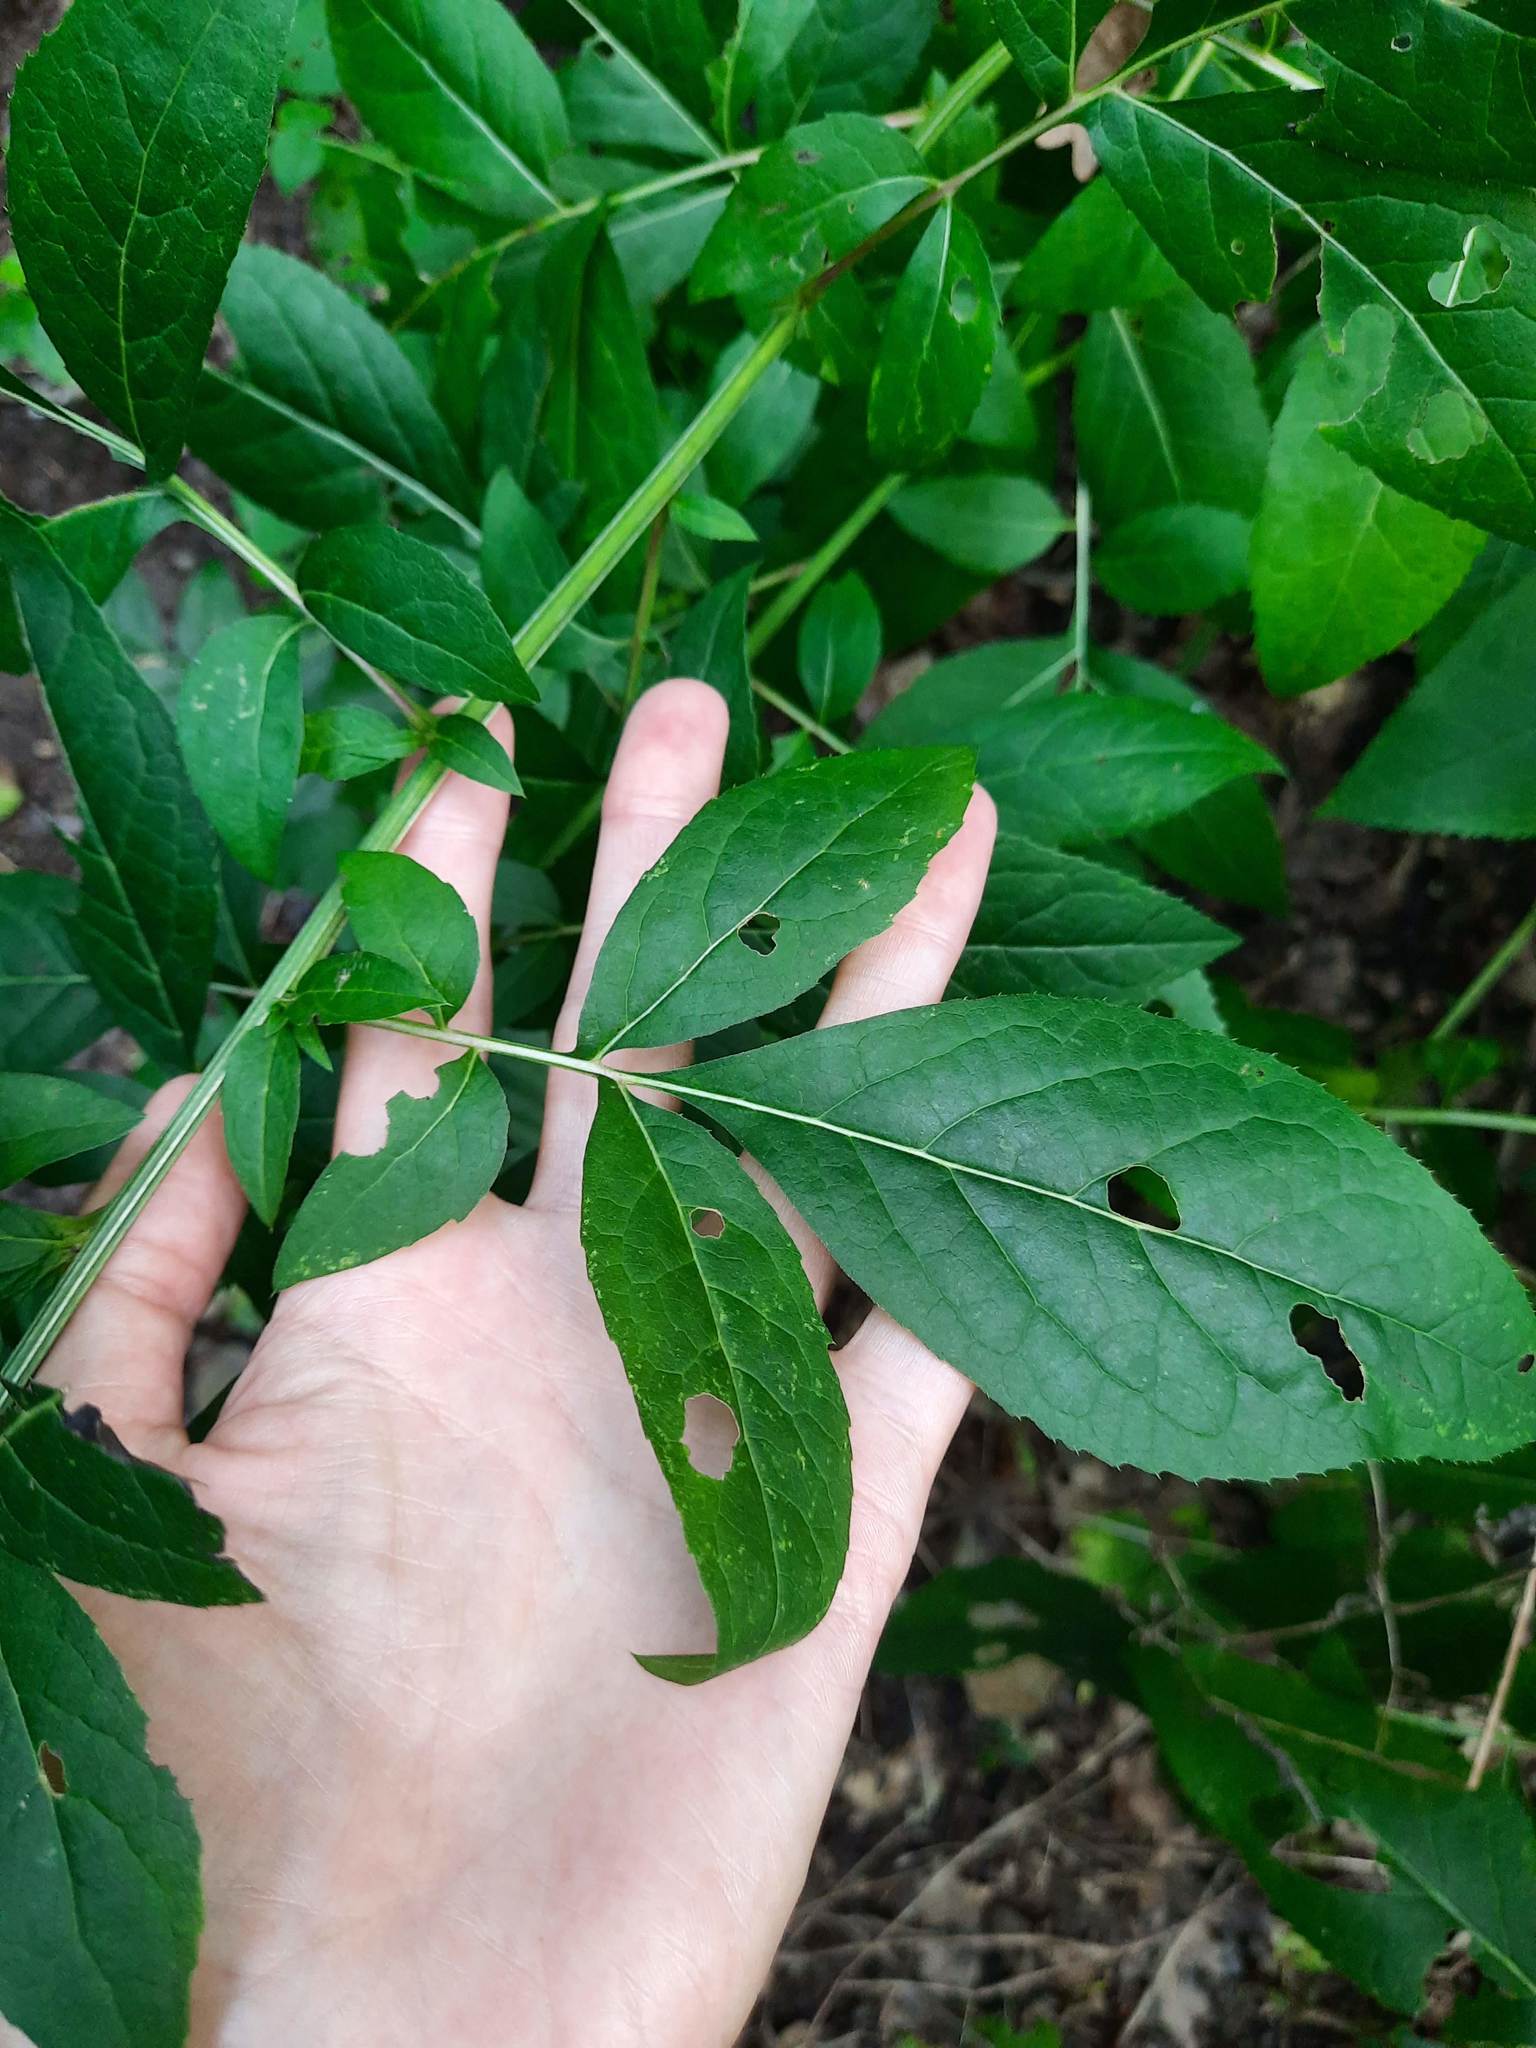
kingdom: Plantae
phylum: Tracheophyta
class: Magnoliopsida
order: Asterales
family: Asteraceae
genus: Klasea
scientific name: Klasea quinquefolia
